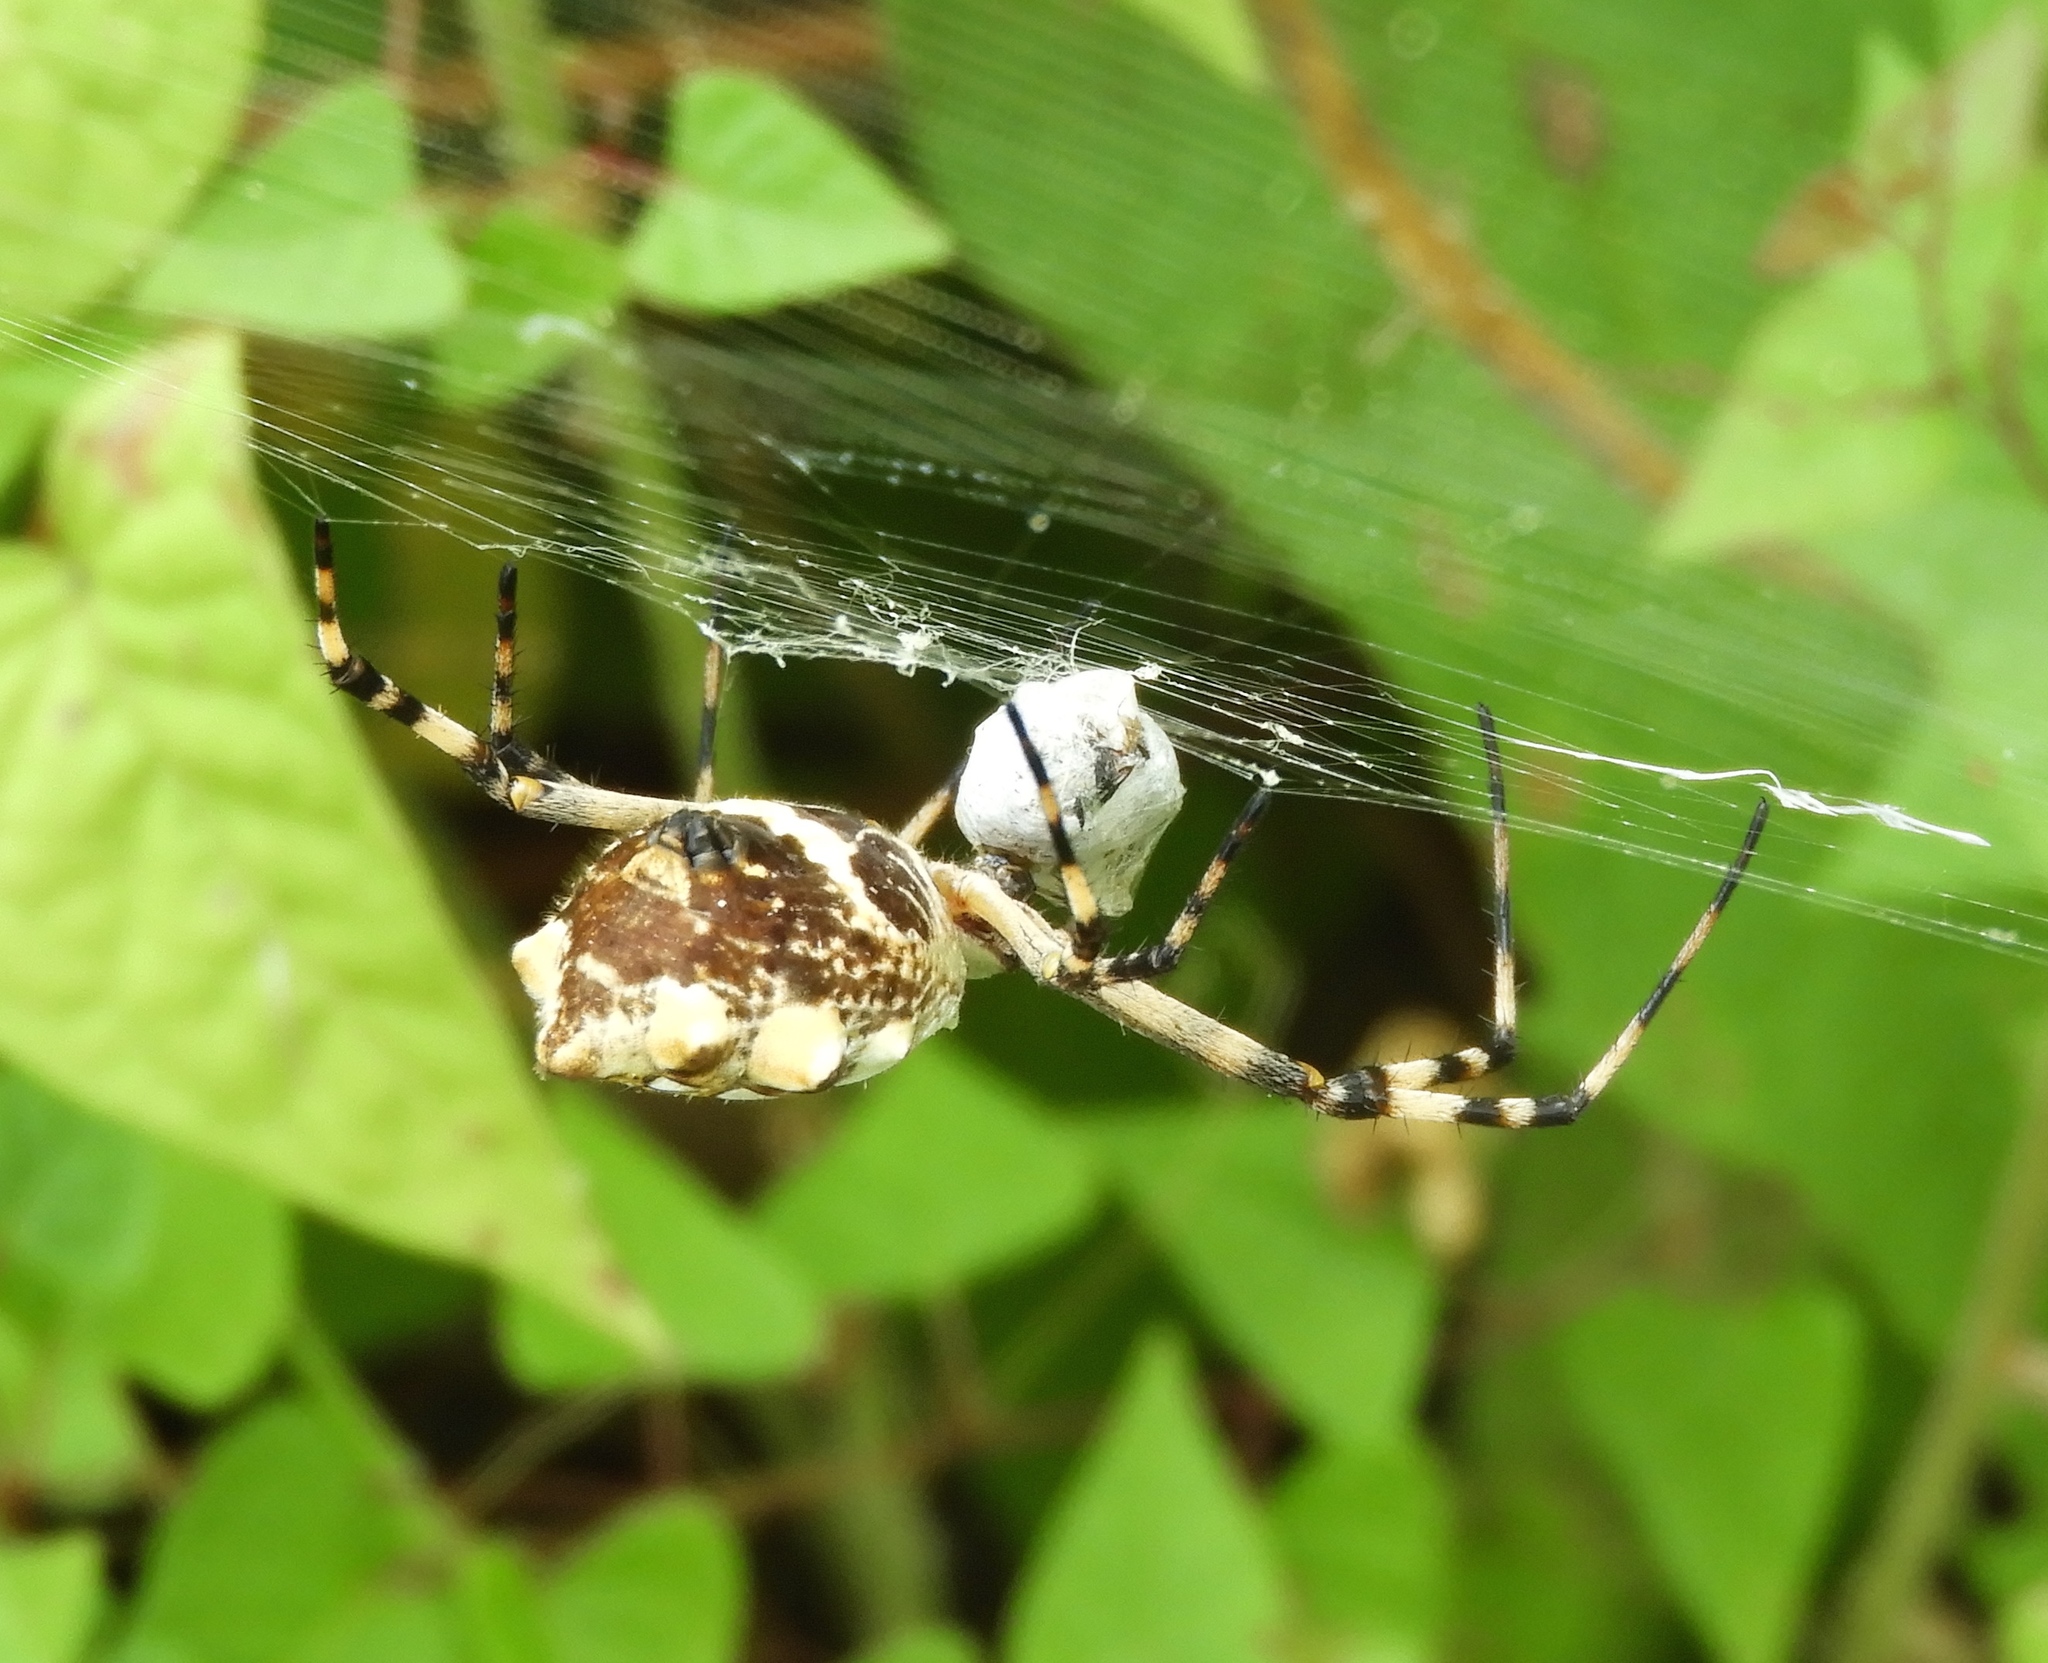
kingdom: Animalia
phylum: Arthropoda
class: Arachnida
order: Araneae
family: Araneidae
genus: Argiope
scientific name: Argiope argentata
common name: Orb weavers
